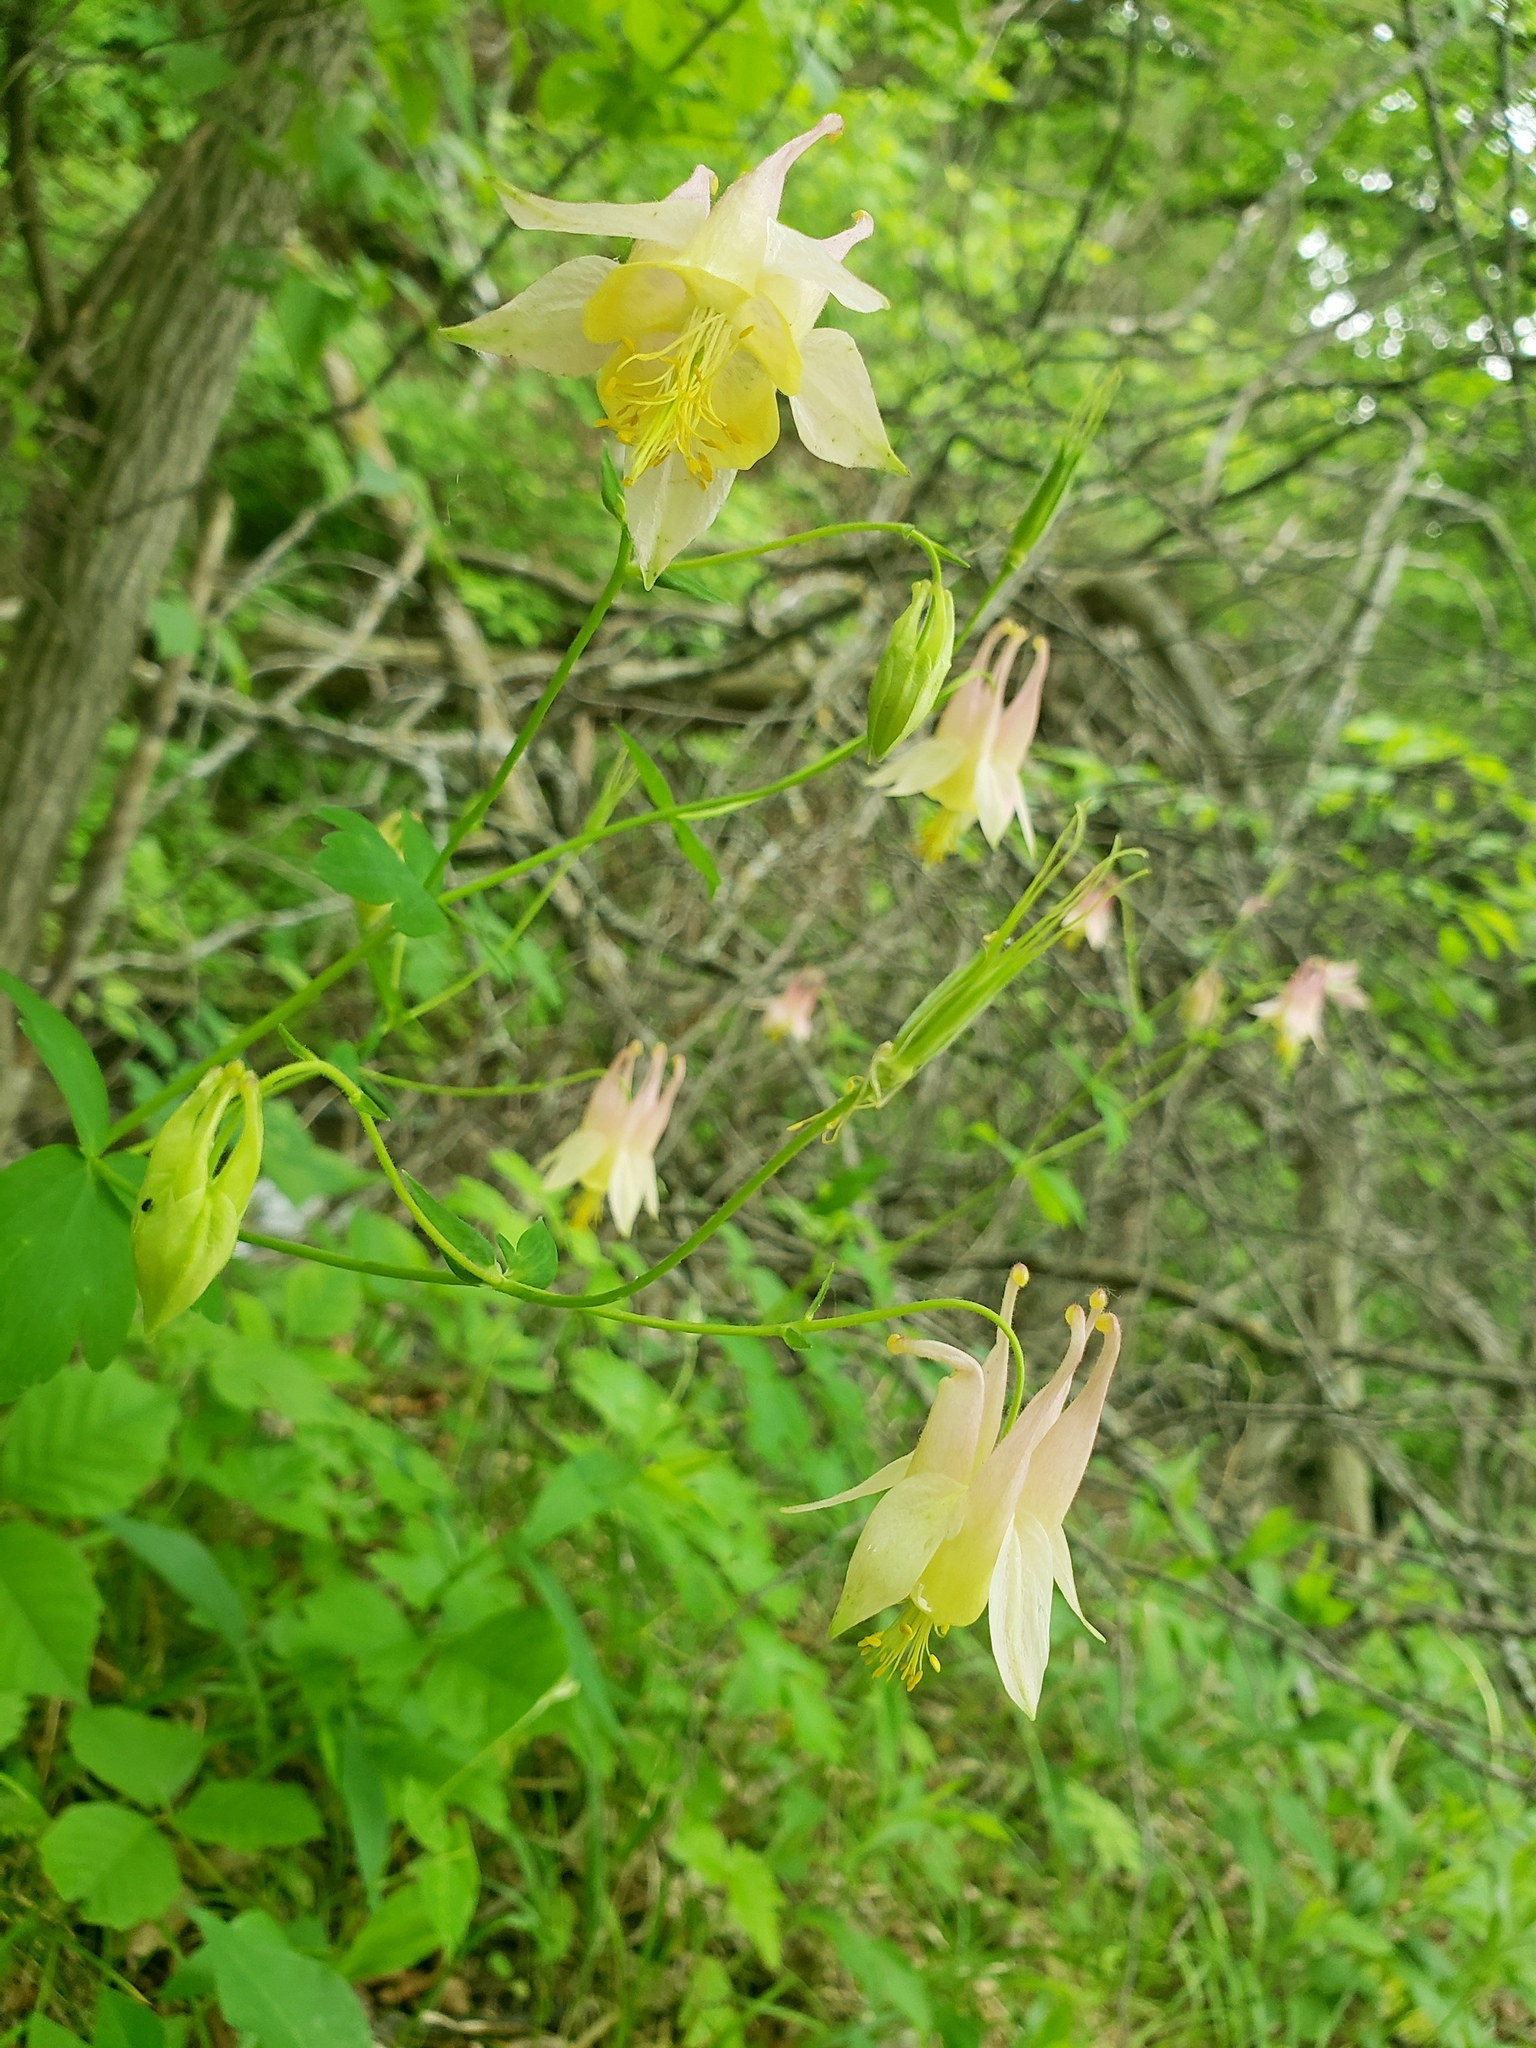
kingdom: Plantae
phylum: Tracheophyta
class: Magnoliopsida
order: Ranunculales
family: Ranunculaceae
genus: Aquilegia
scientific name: Aquilegia canadensis
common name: American columbine
